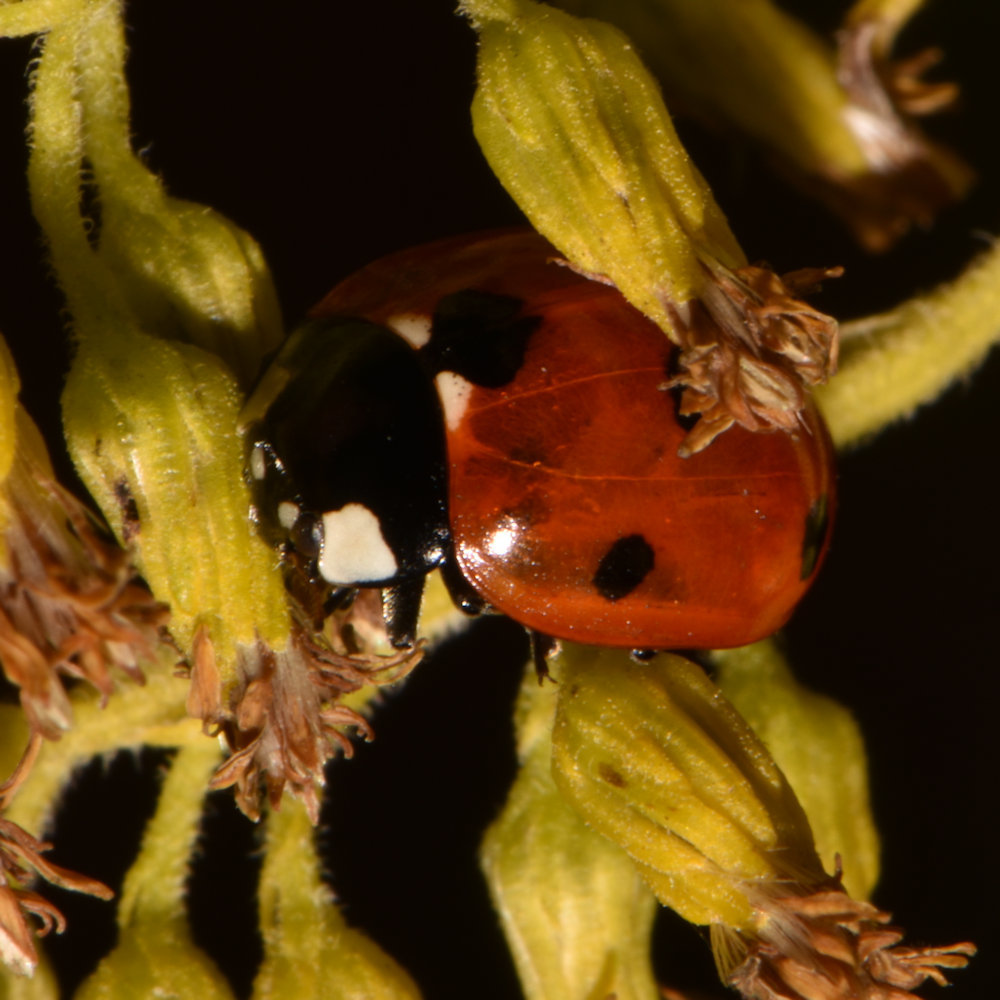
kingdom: Animalia
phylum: Arthropoda
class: Insecta
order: Coleoptera
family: Coccinellidae
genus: Coccinella
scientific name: Coccinella septempunctata
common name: Sevenspotted lady beetle
